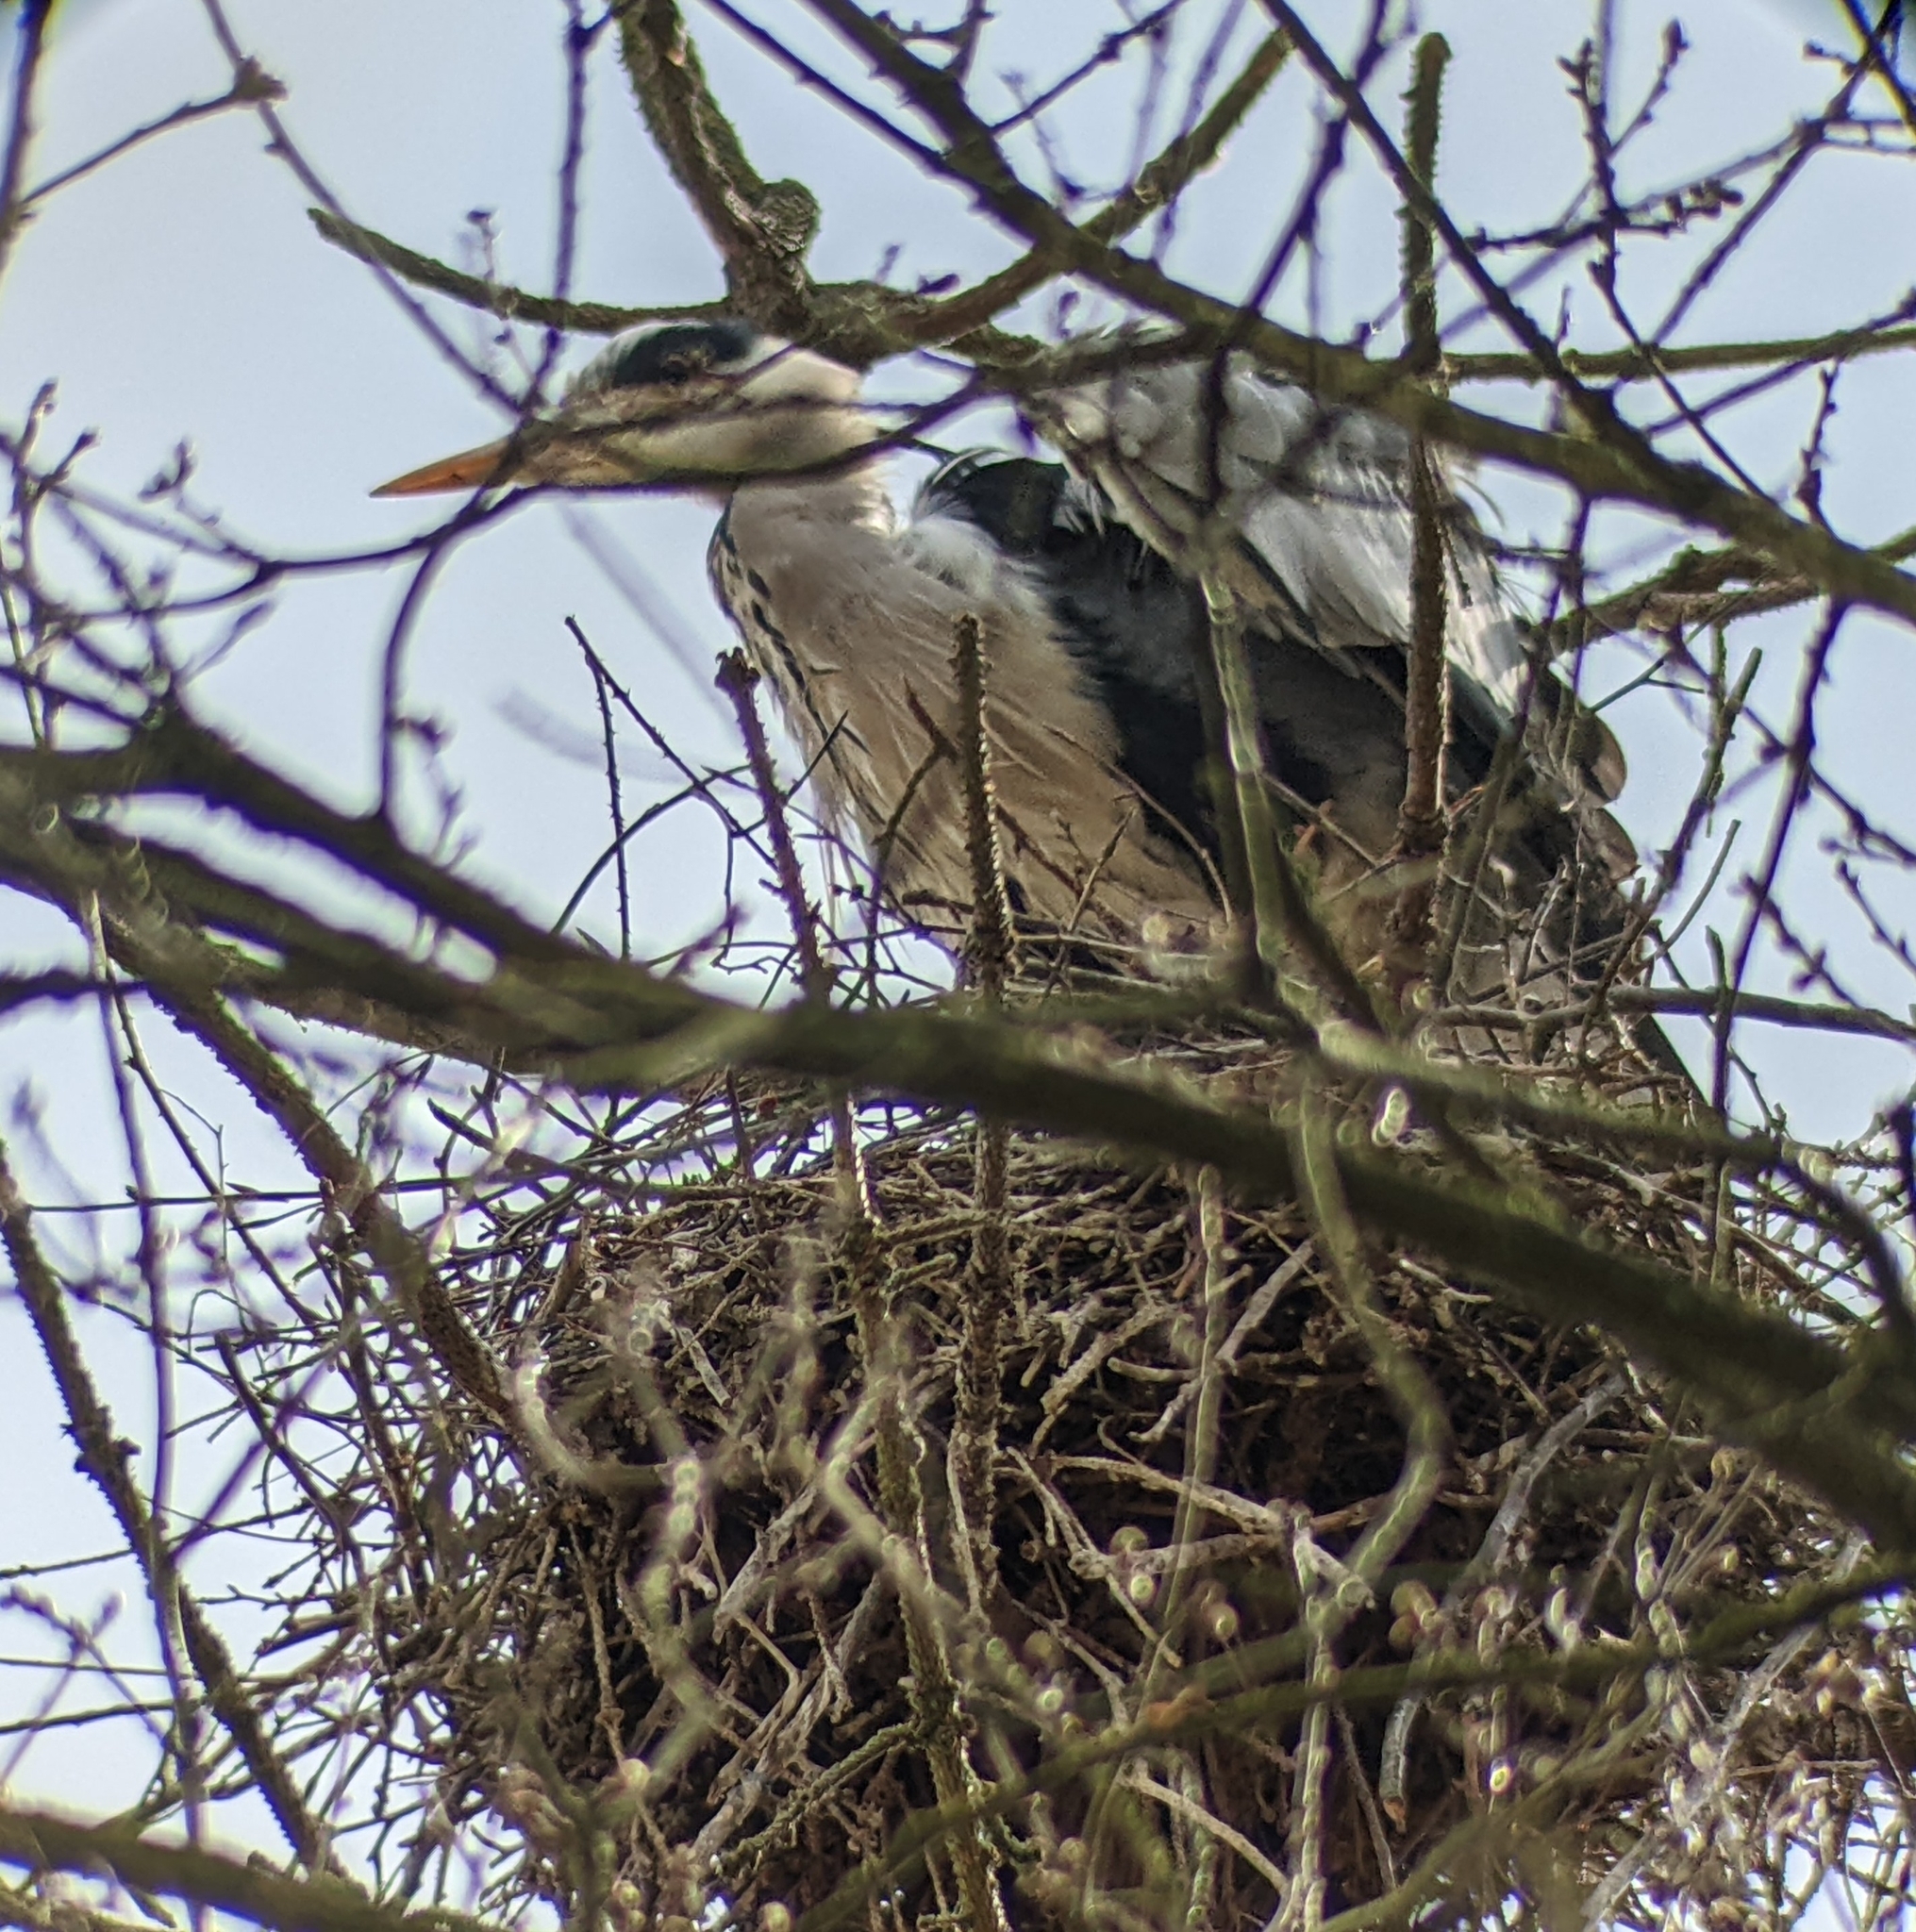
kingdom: Animalia
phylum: Chordata
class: Aves
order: Pelecaniformes
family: Ardeidae
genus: Ardea
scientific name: Ardea cinerea
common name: Grey heron
